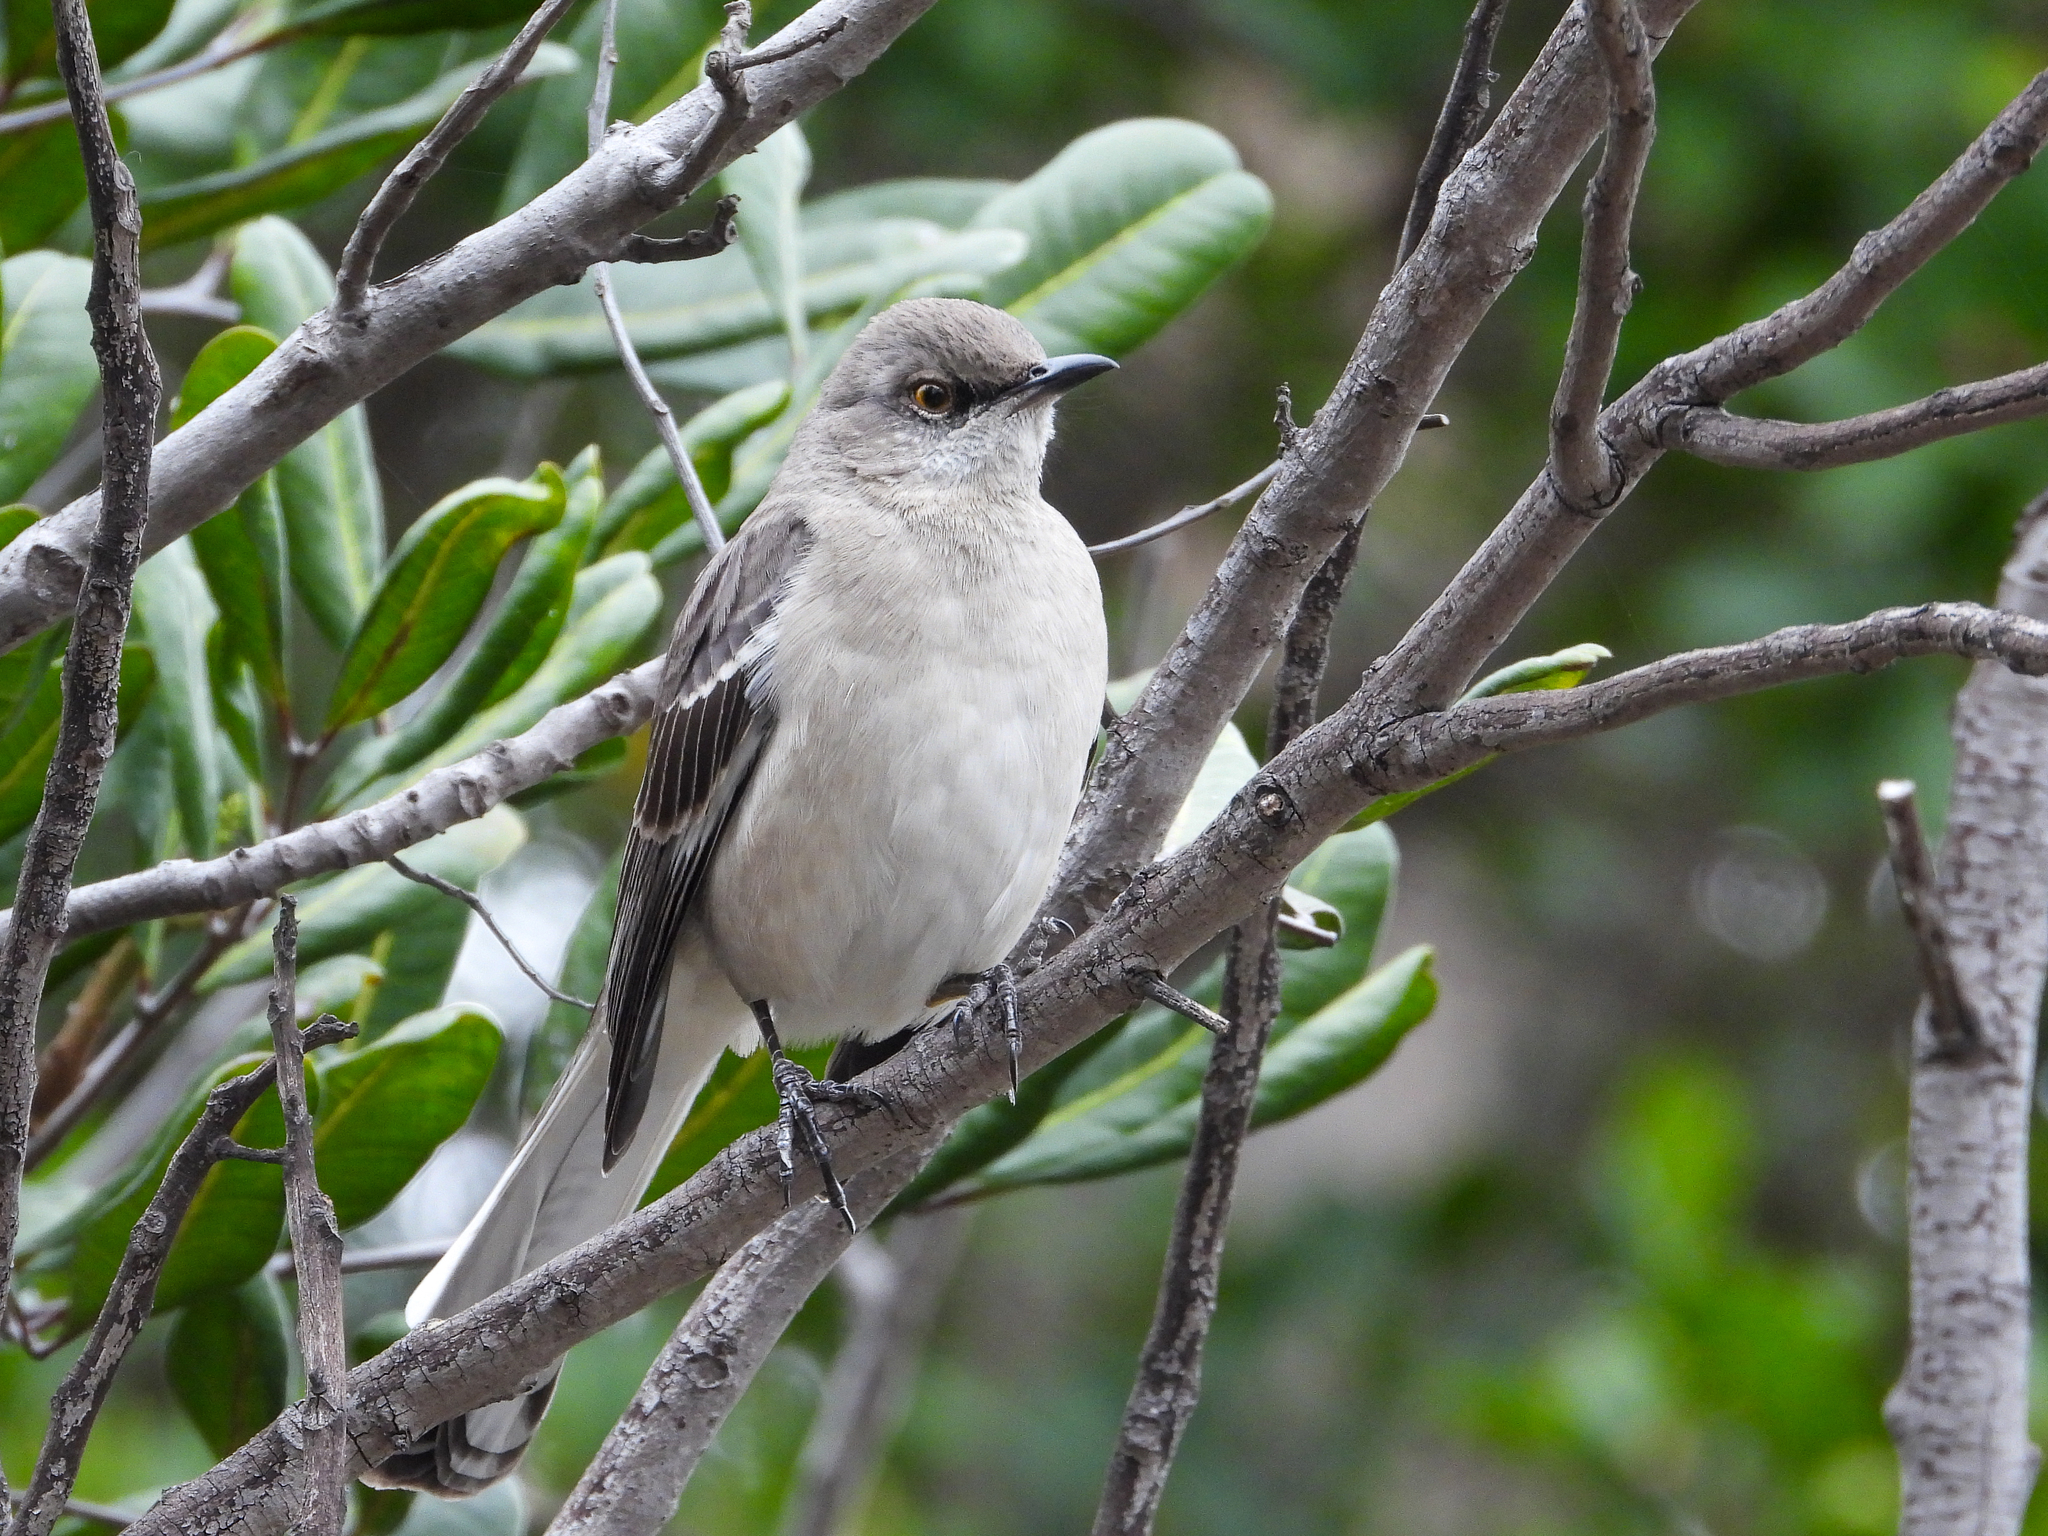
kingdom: Animalia
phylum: Chordata
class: Aves
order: Passeriformes
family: Mimidae
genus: Mimus
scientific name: Mimus polyglottos
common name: Northern mockingbird
